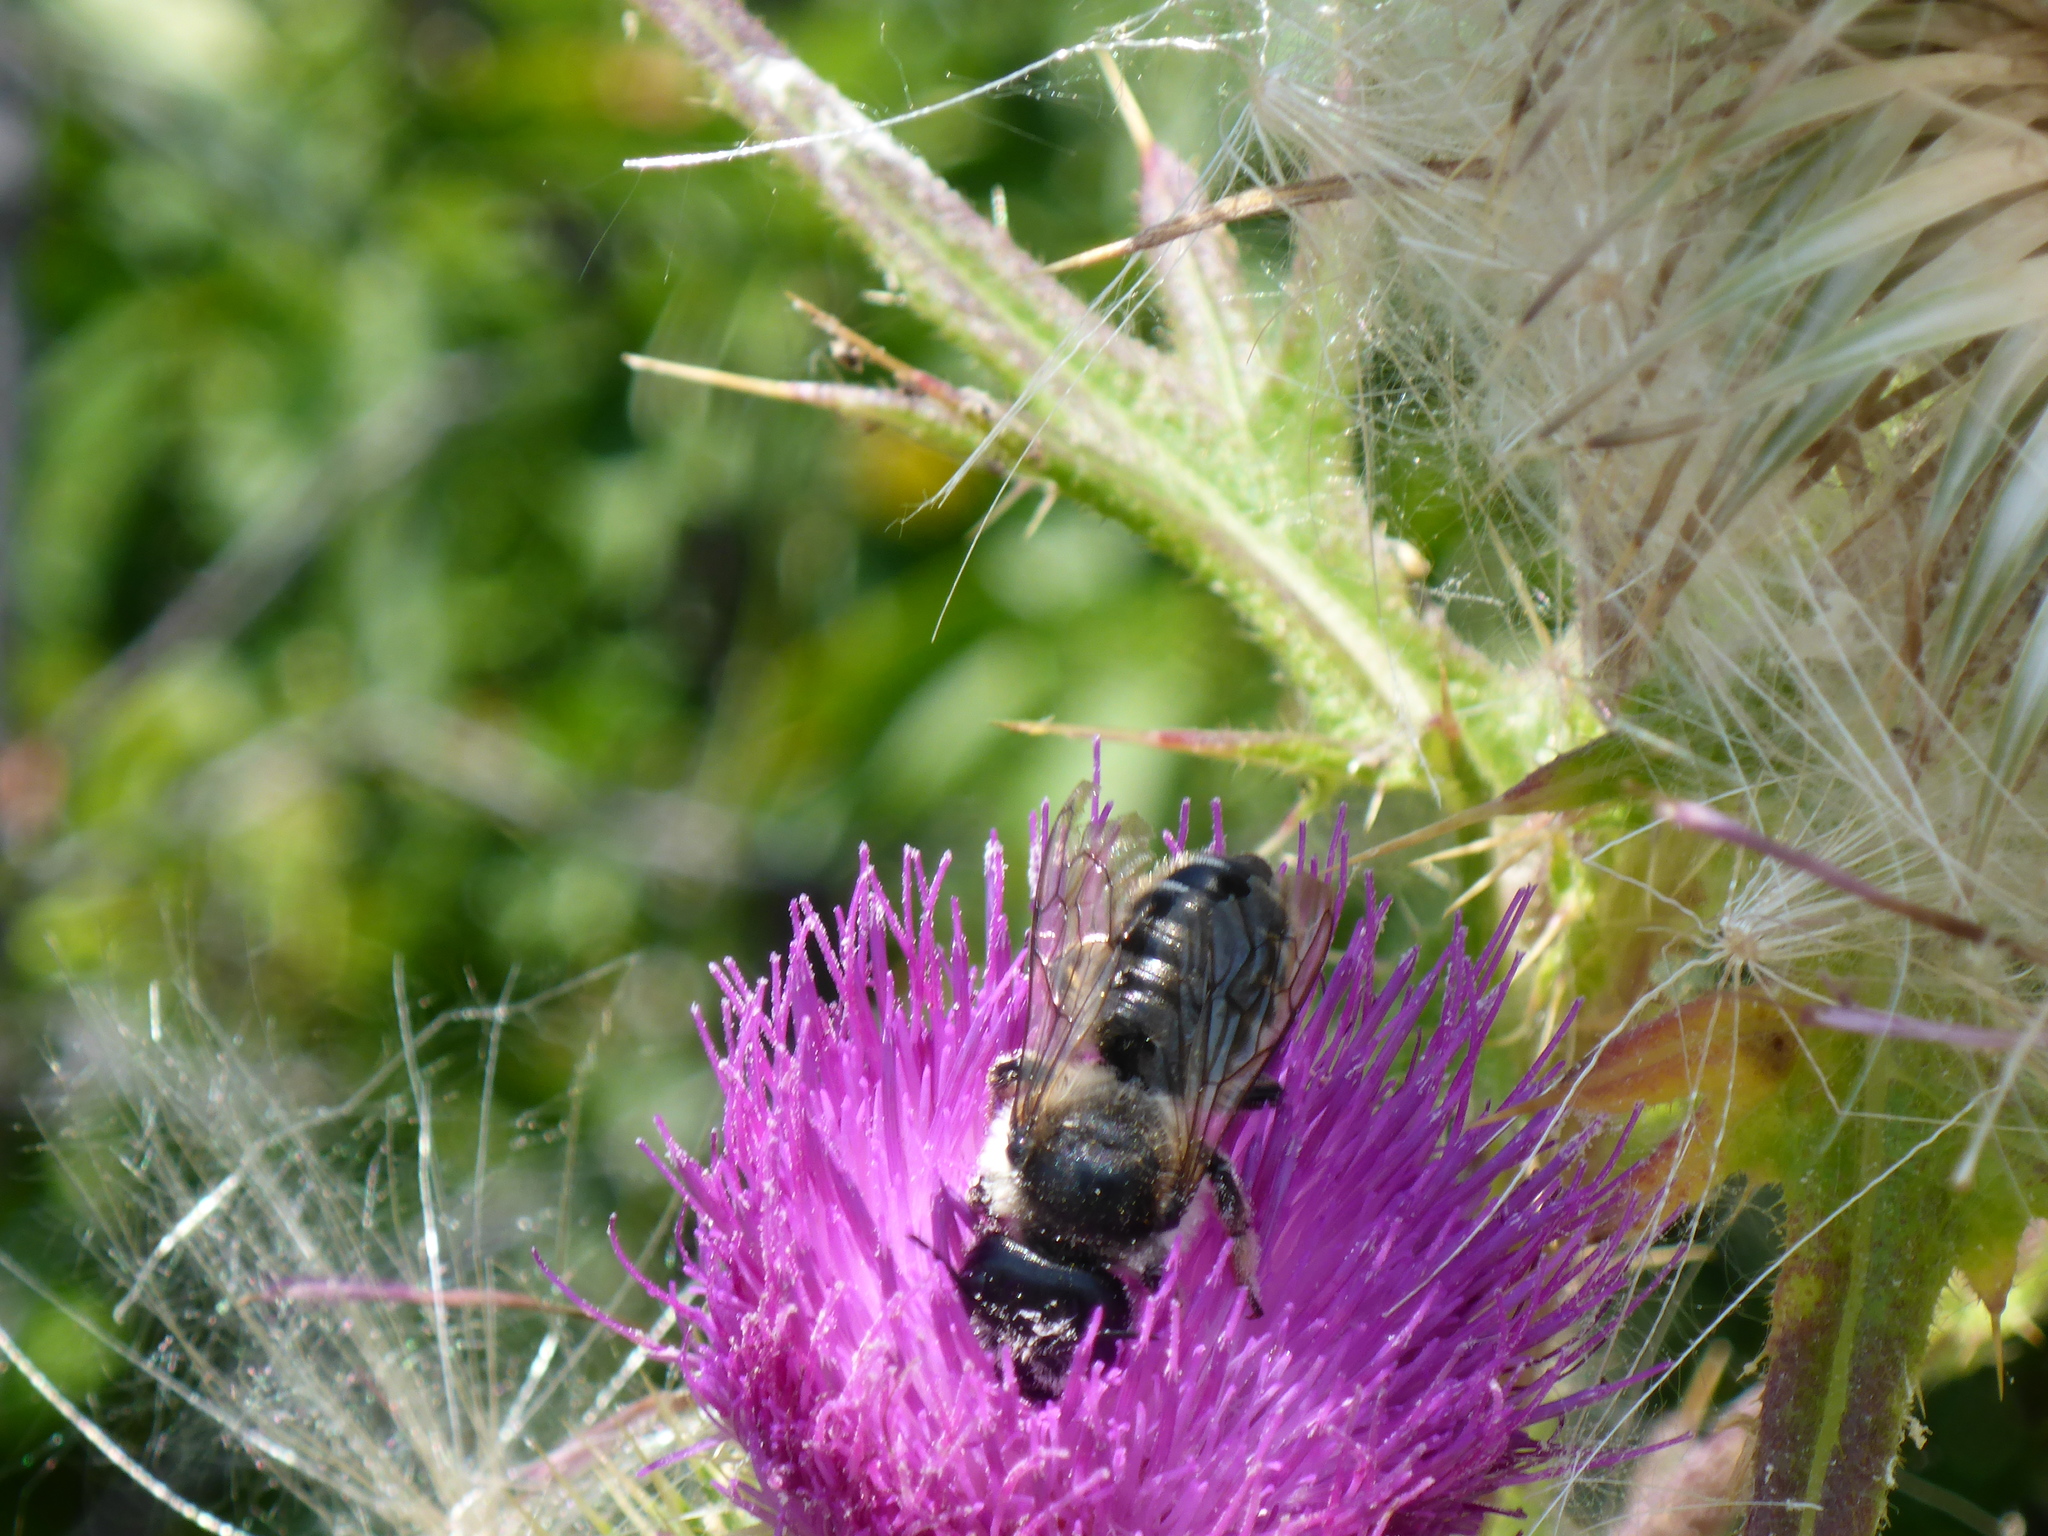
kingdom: Animalia
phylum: Arthropoda
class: Insecta
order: Hymenoptera
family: Megachilidae
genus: Megachile
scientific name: Megachile inermis
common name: Unarmed leafcutter bee
